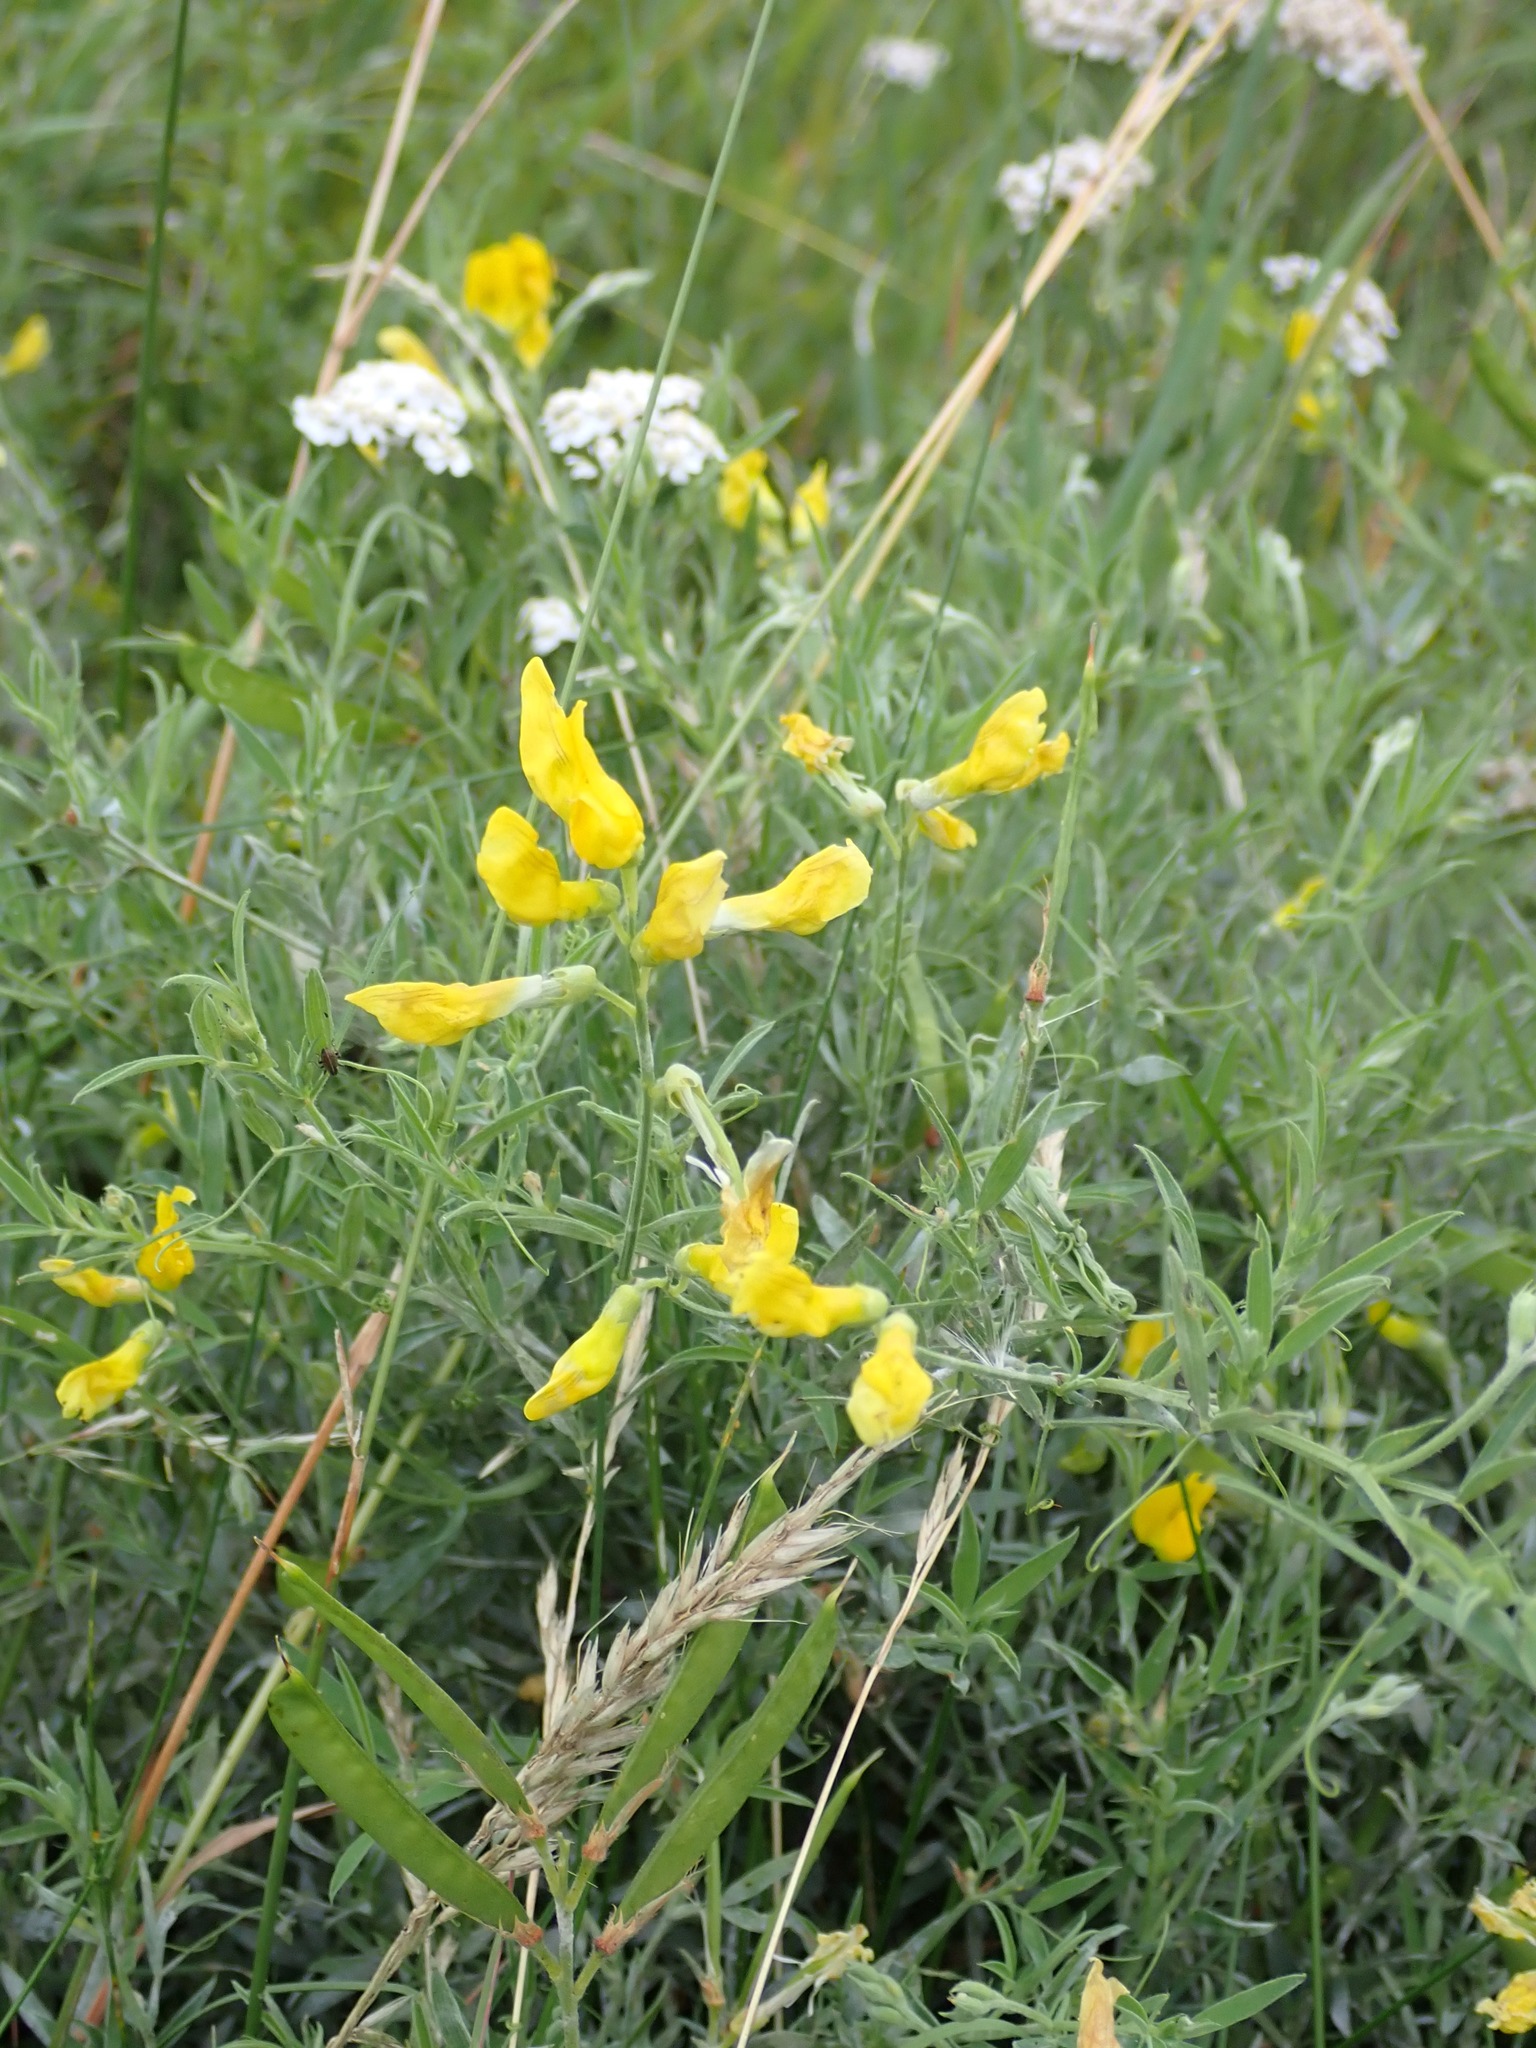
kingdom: Plantae
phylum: Tracheophyta
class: Magnoliopsida
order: Fabales
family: Fabaceae
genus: Lathyrus
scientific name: Lathyrus pratensis
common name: Meadow vetchling
